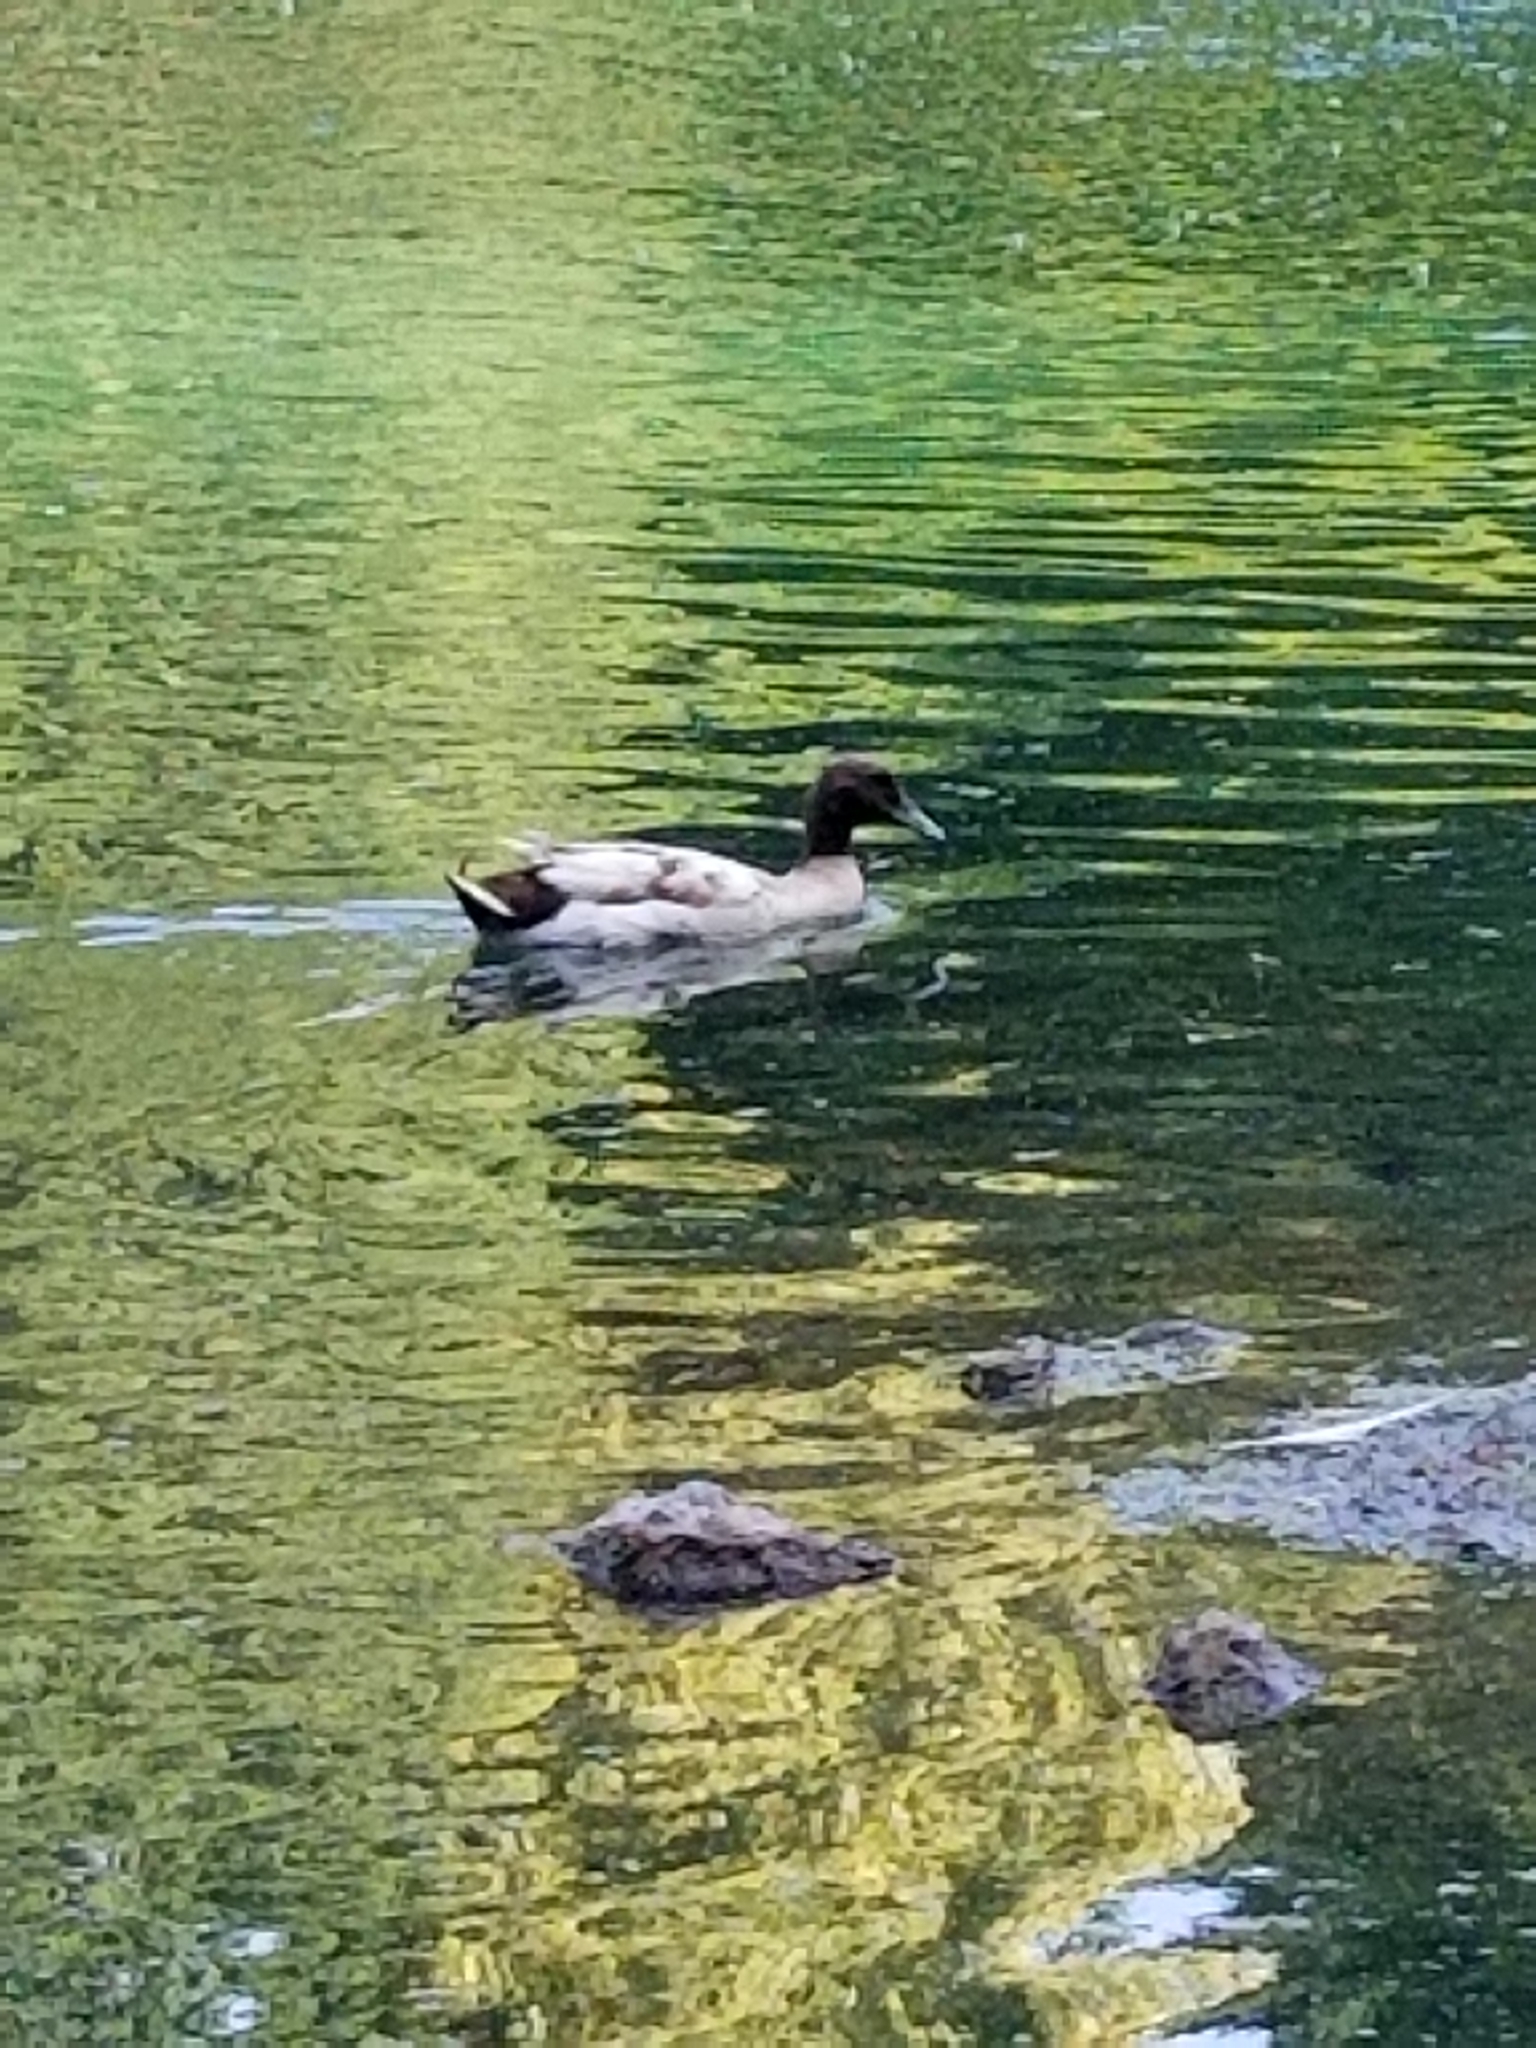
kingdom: Animalia
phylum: Chordata
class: Aves
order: Anseriformes
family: Anatidae
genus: Anas
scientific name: Anas platyrhynchos
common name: Mallard
